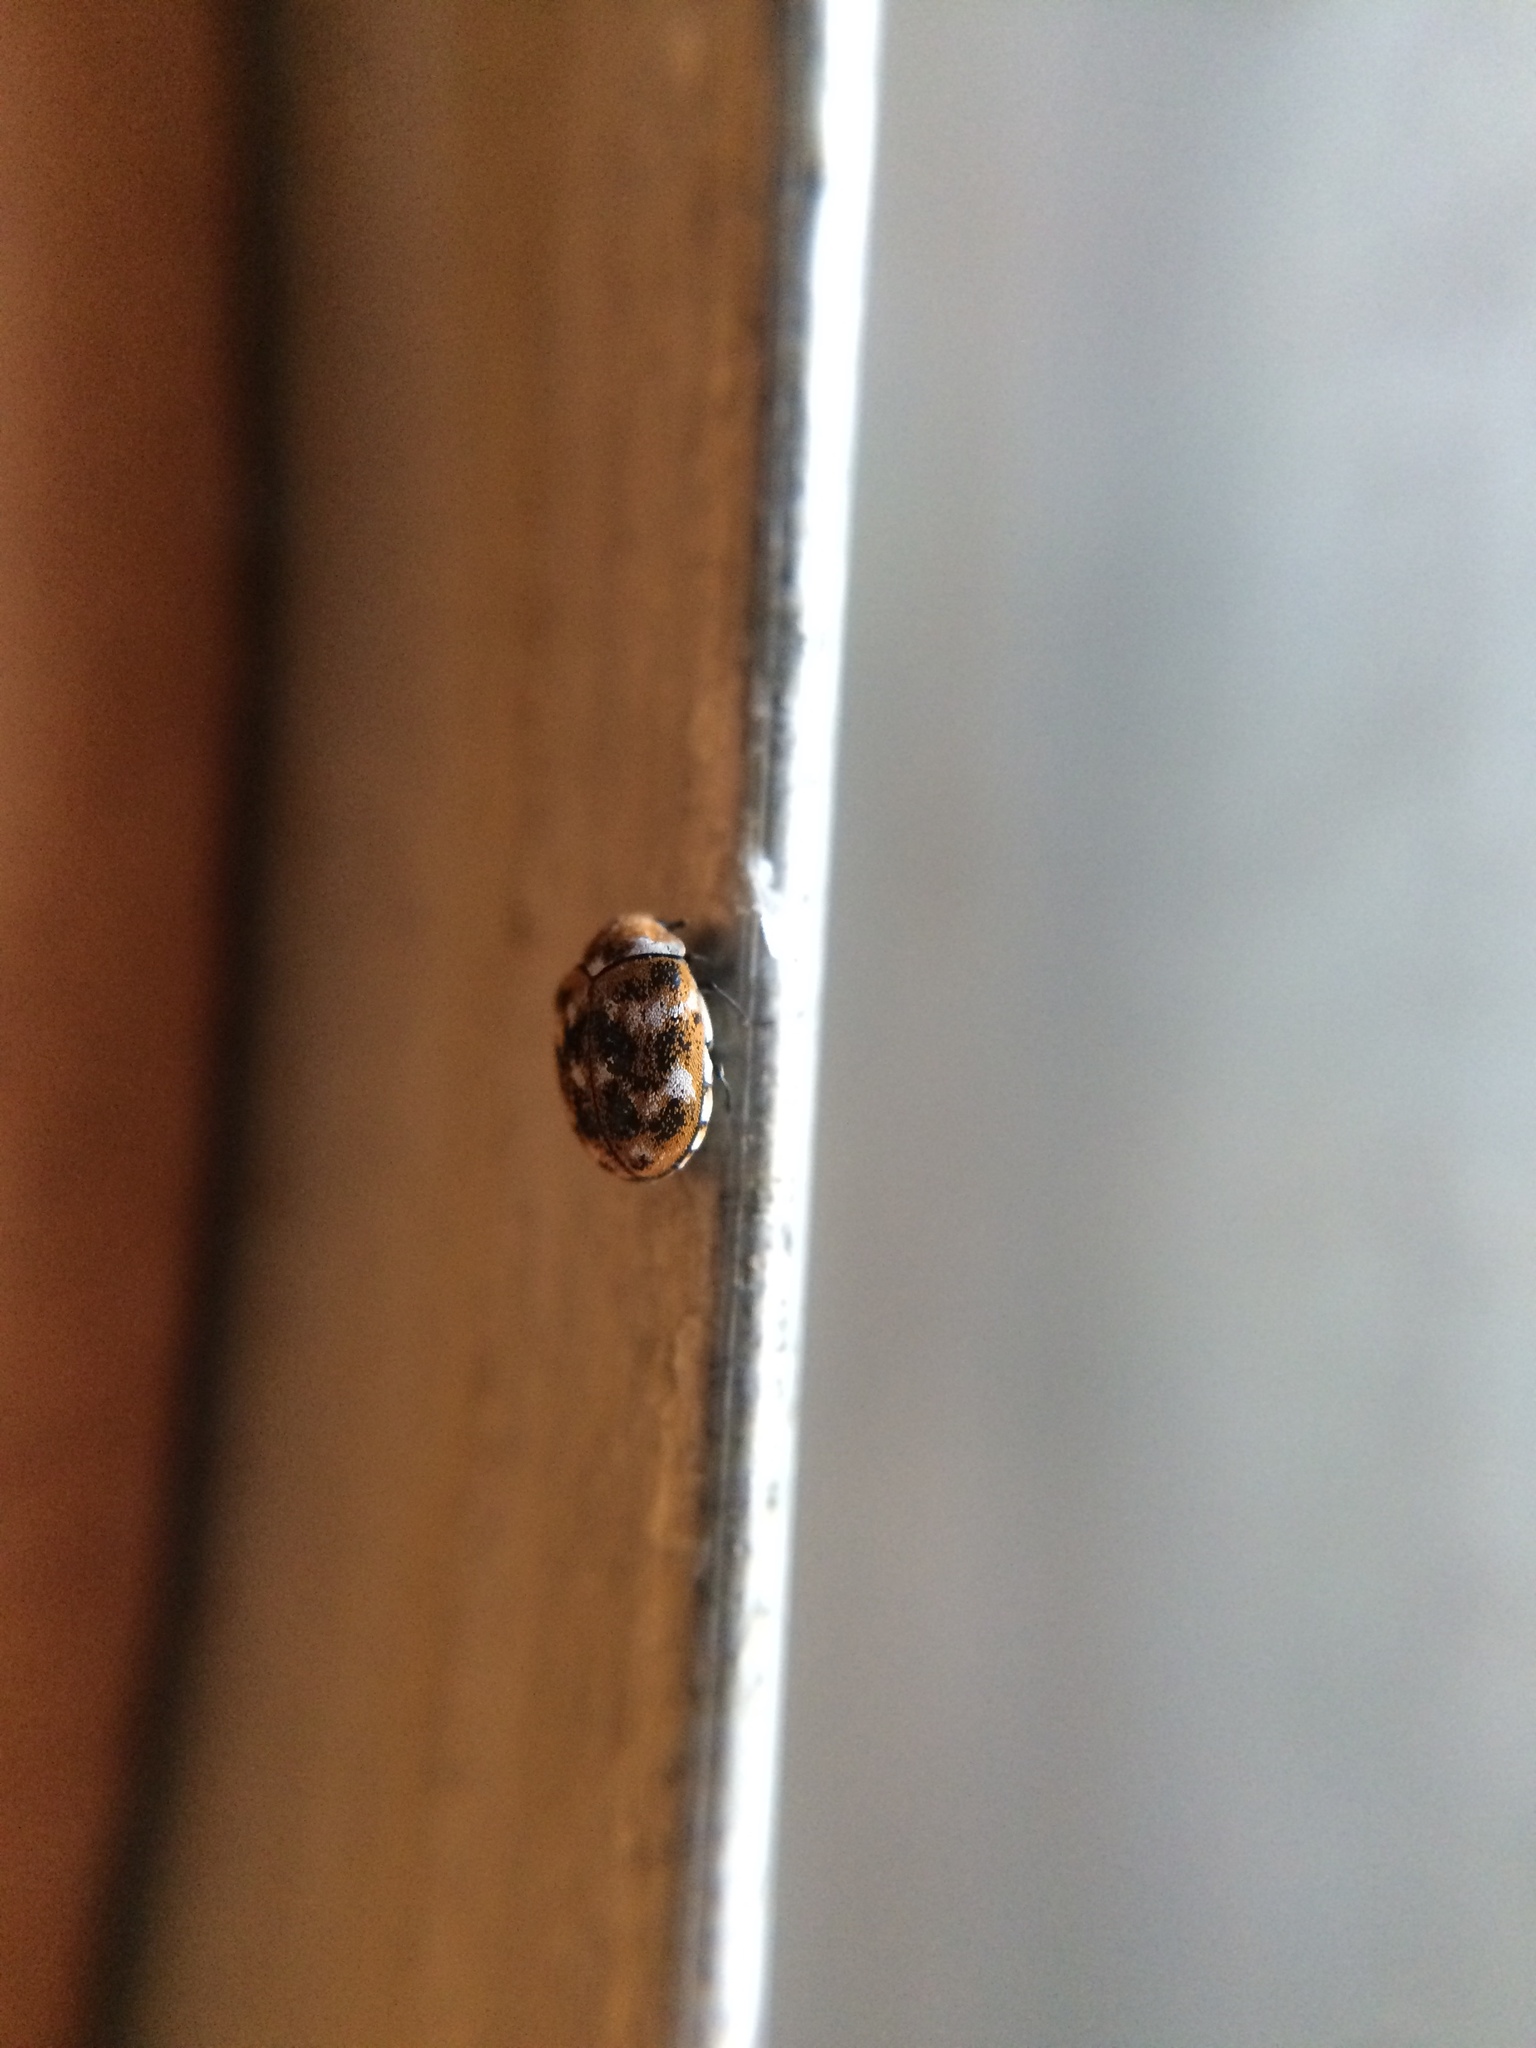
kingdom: Animalia
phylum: Arthropoda
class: Insecta
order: Coleoptera
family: Dermestidae
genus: Anthrenus
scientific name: Anthrenus verbasci
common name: Varied carpet beetle
